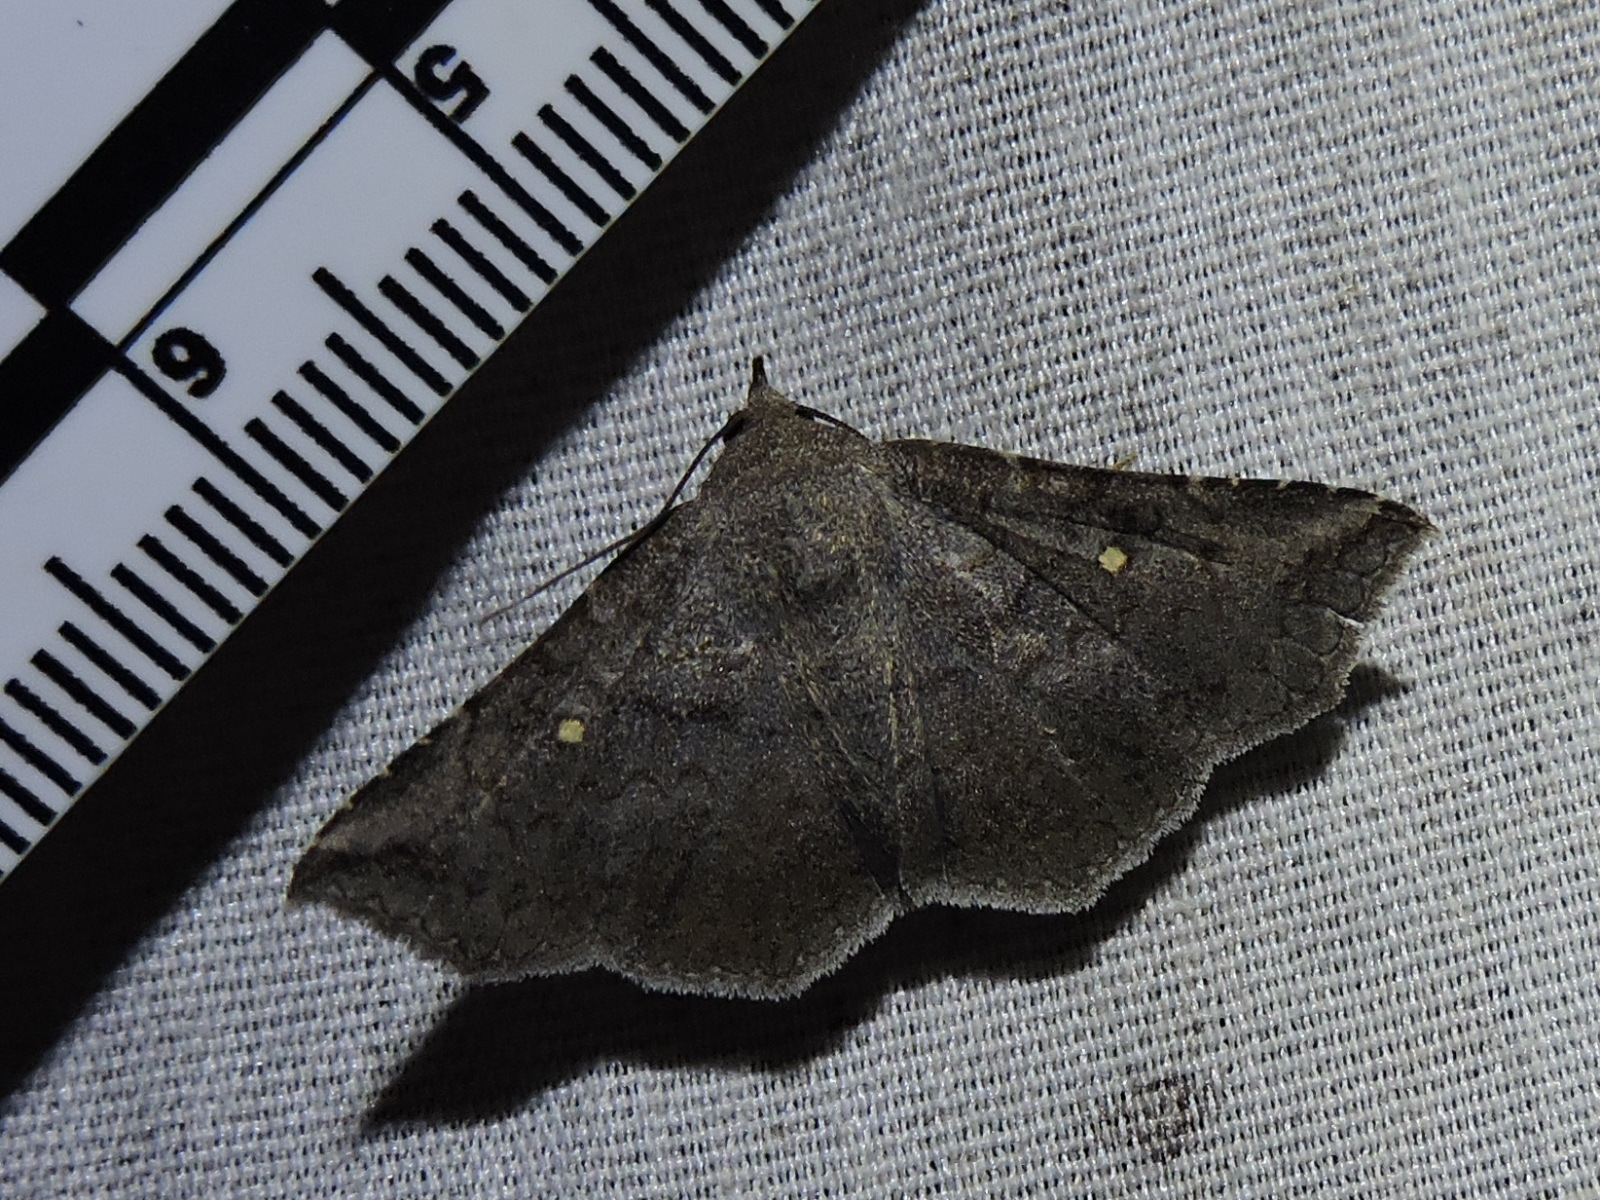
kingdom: Animalia
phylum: Arthropoda
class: Insecta
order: Lepidoptera
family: Erebidae
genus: Lesmone
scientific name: Lesmone hinna
